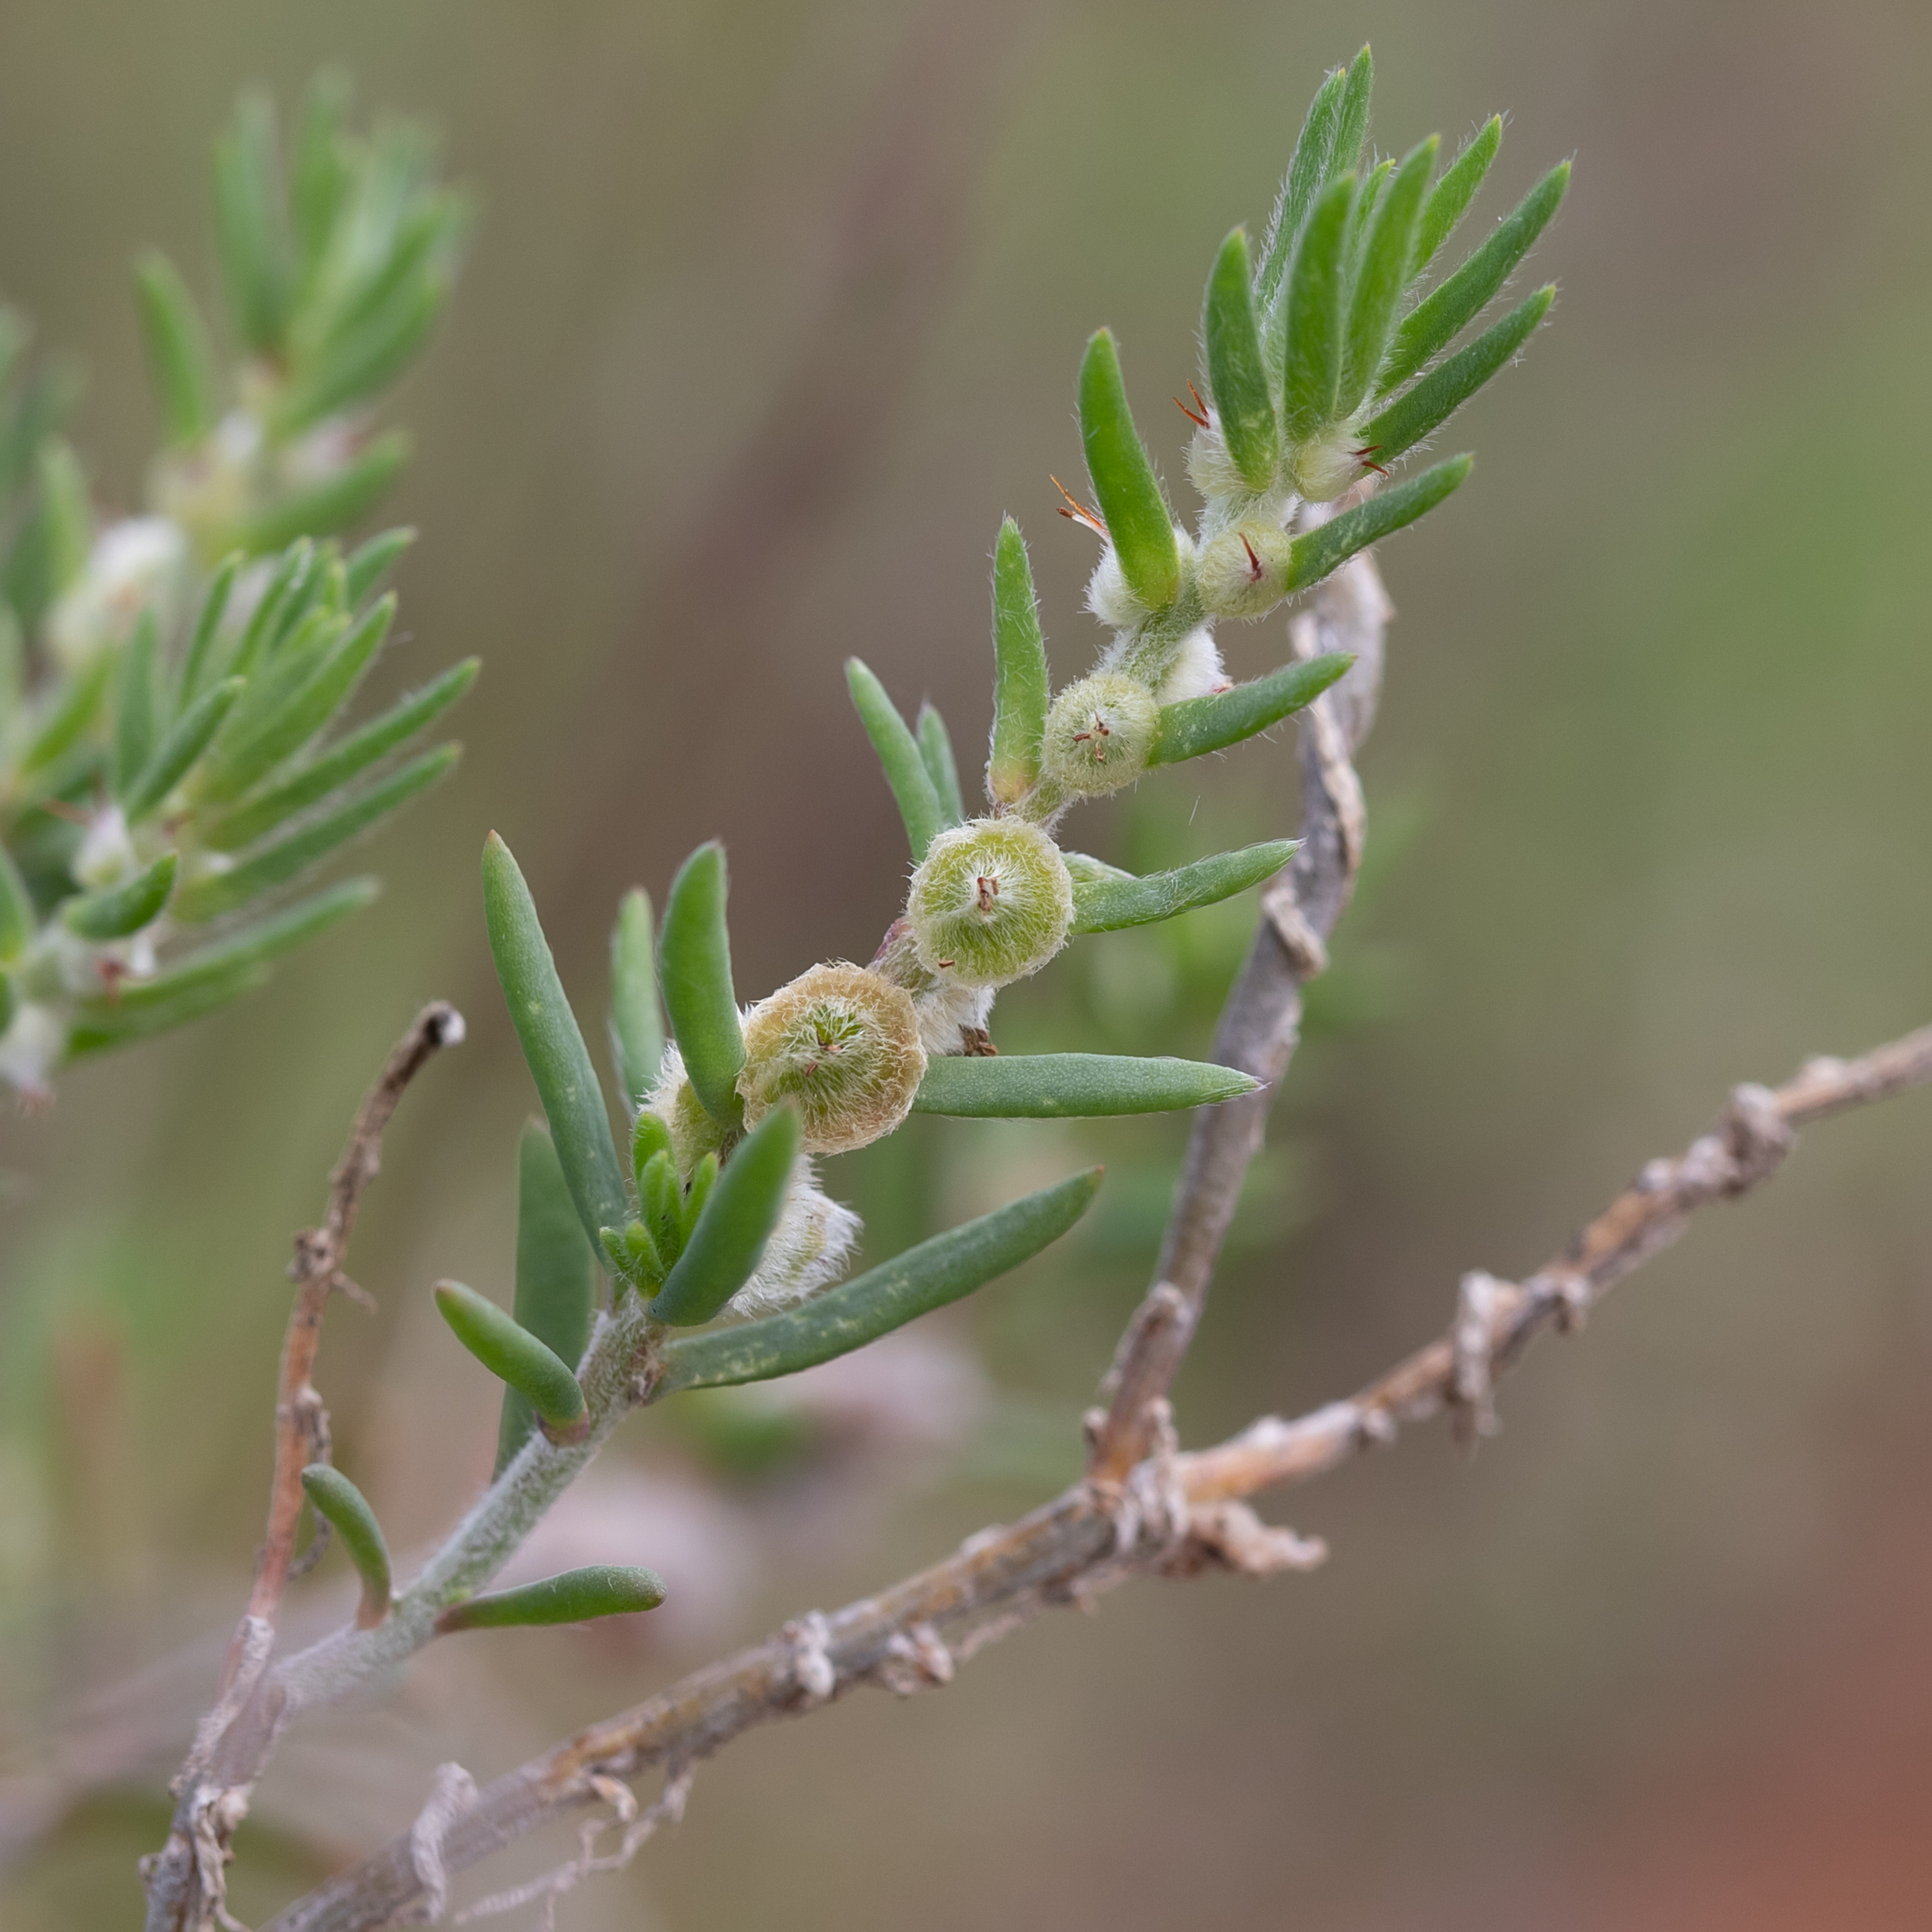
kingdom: Plantae
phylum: Tracheophyta
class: Magnoliopsida
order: Caryophyllales
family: Amaranthaceae
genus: Maireana
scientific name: Maireana coronata
